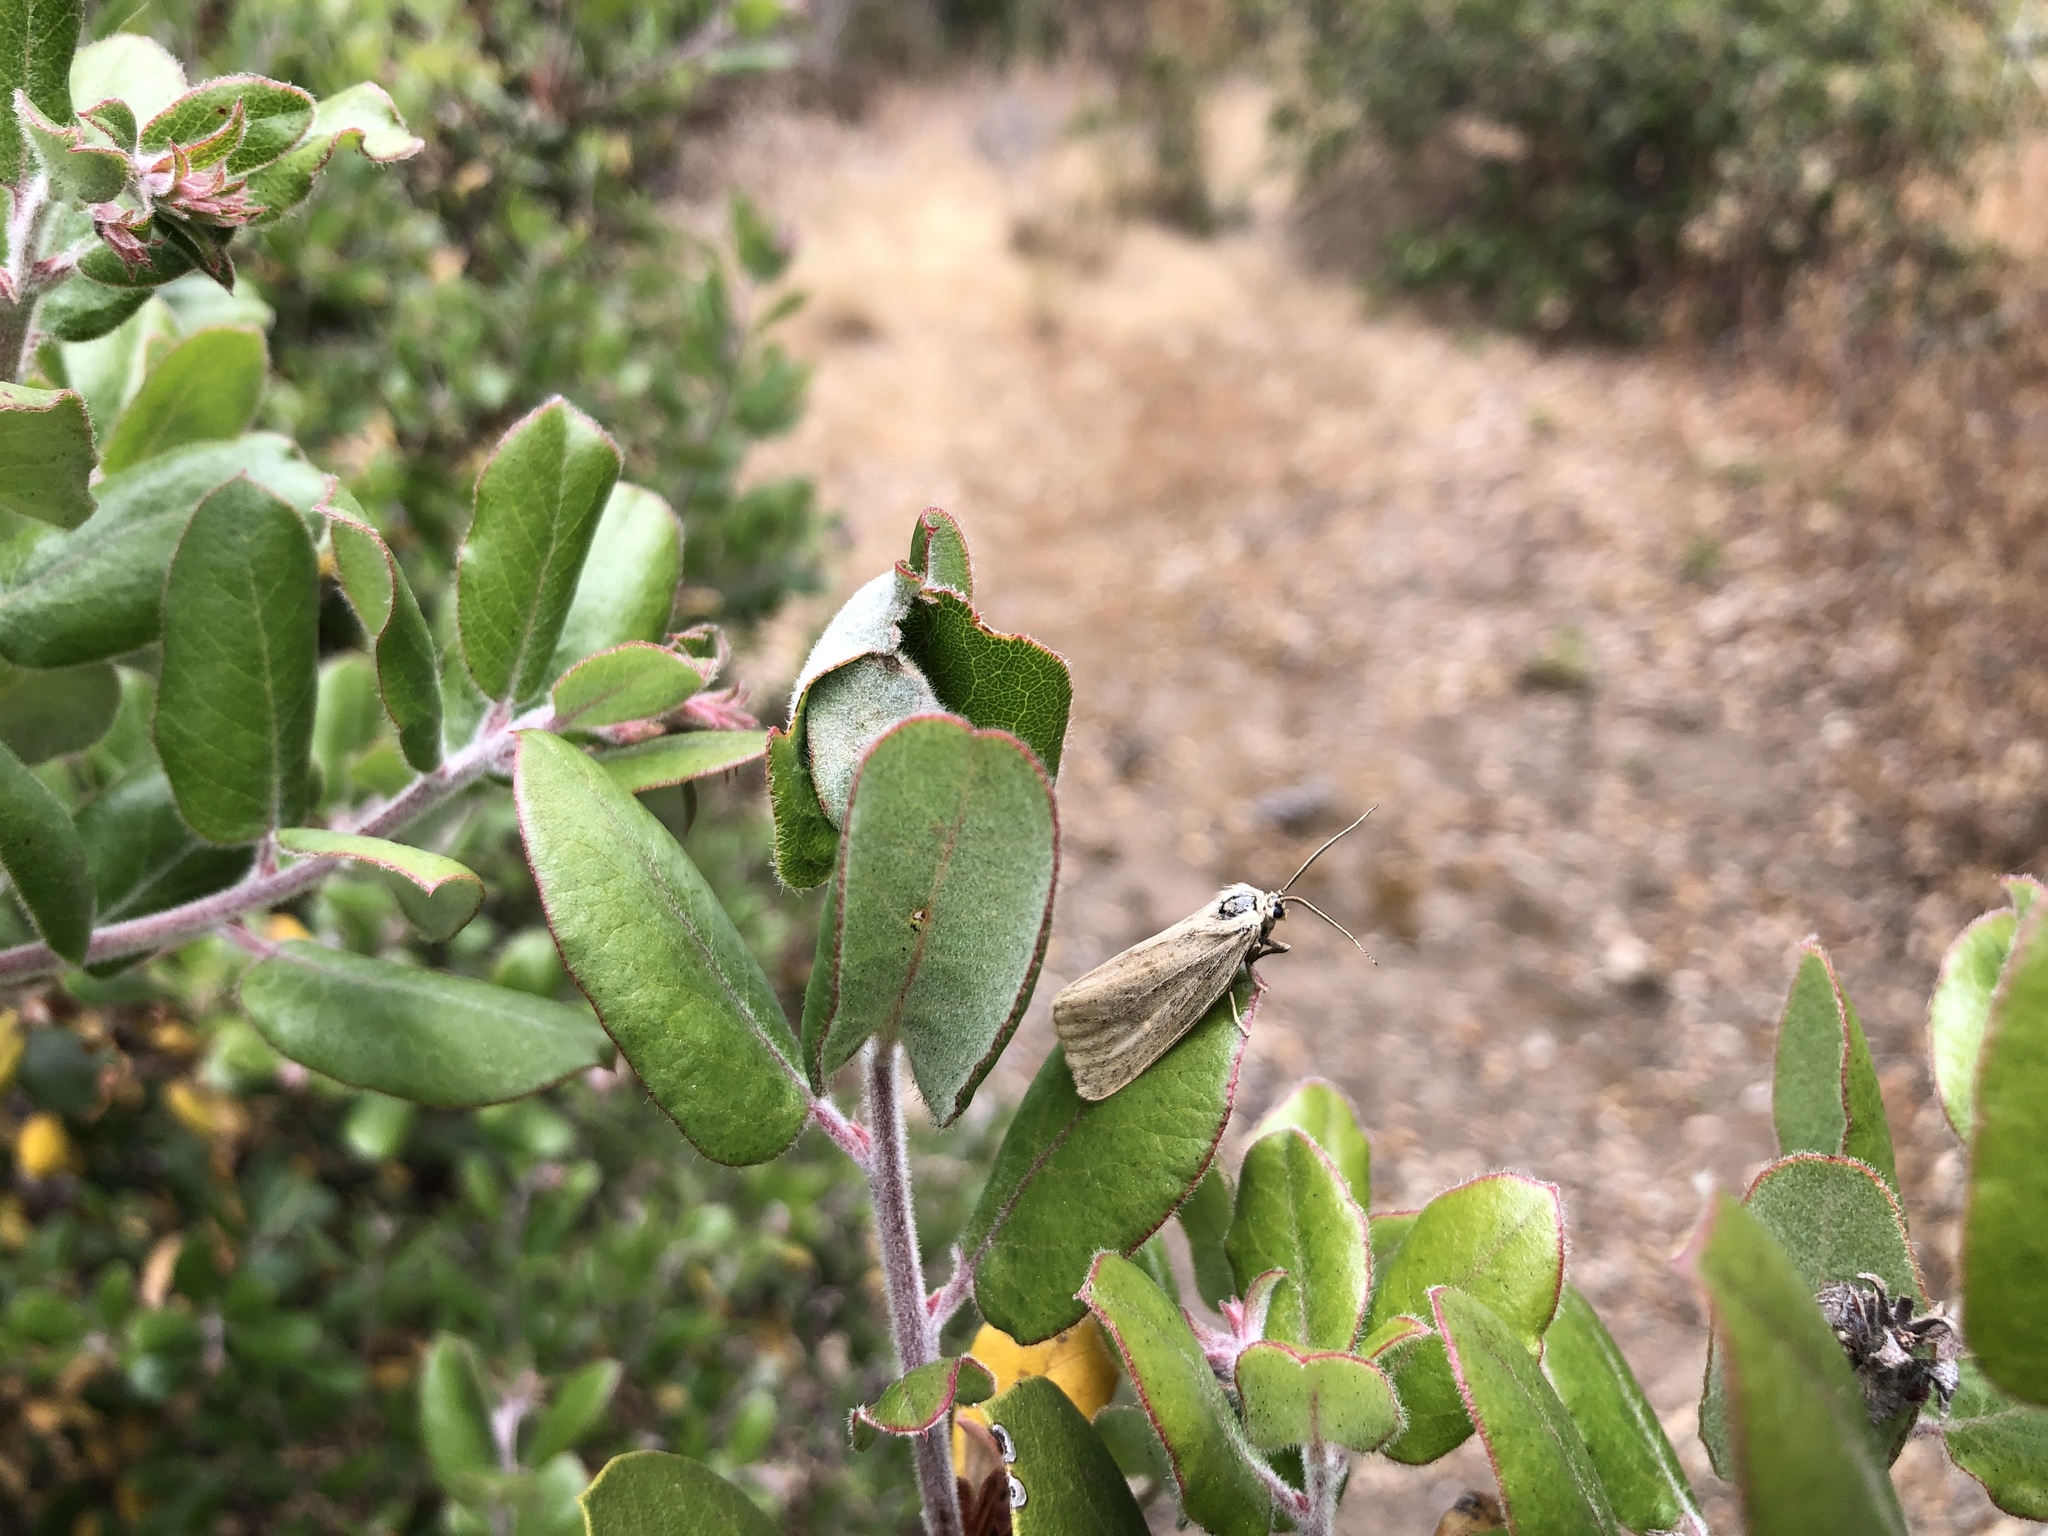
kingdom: Plantae
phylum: Tracheophyta
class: Magnoliopsida
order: Ericales
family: Ericaceae
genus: Arctostaphylos
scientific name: Arctostaphylos tomentosa
